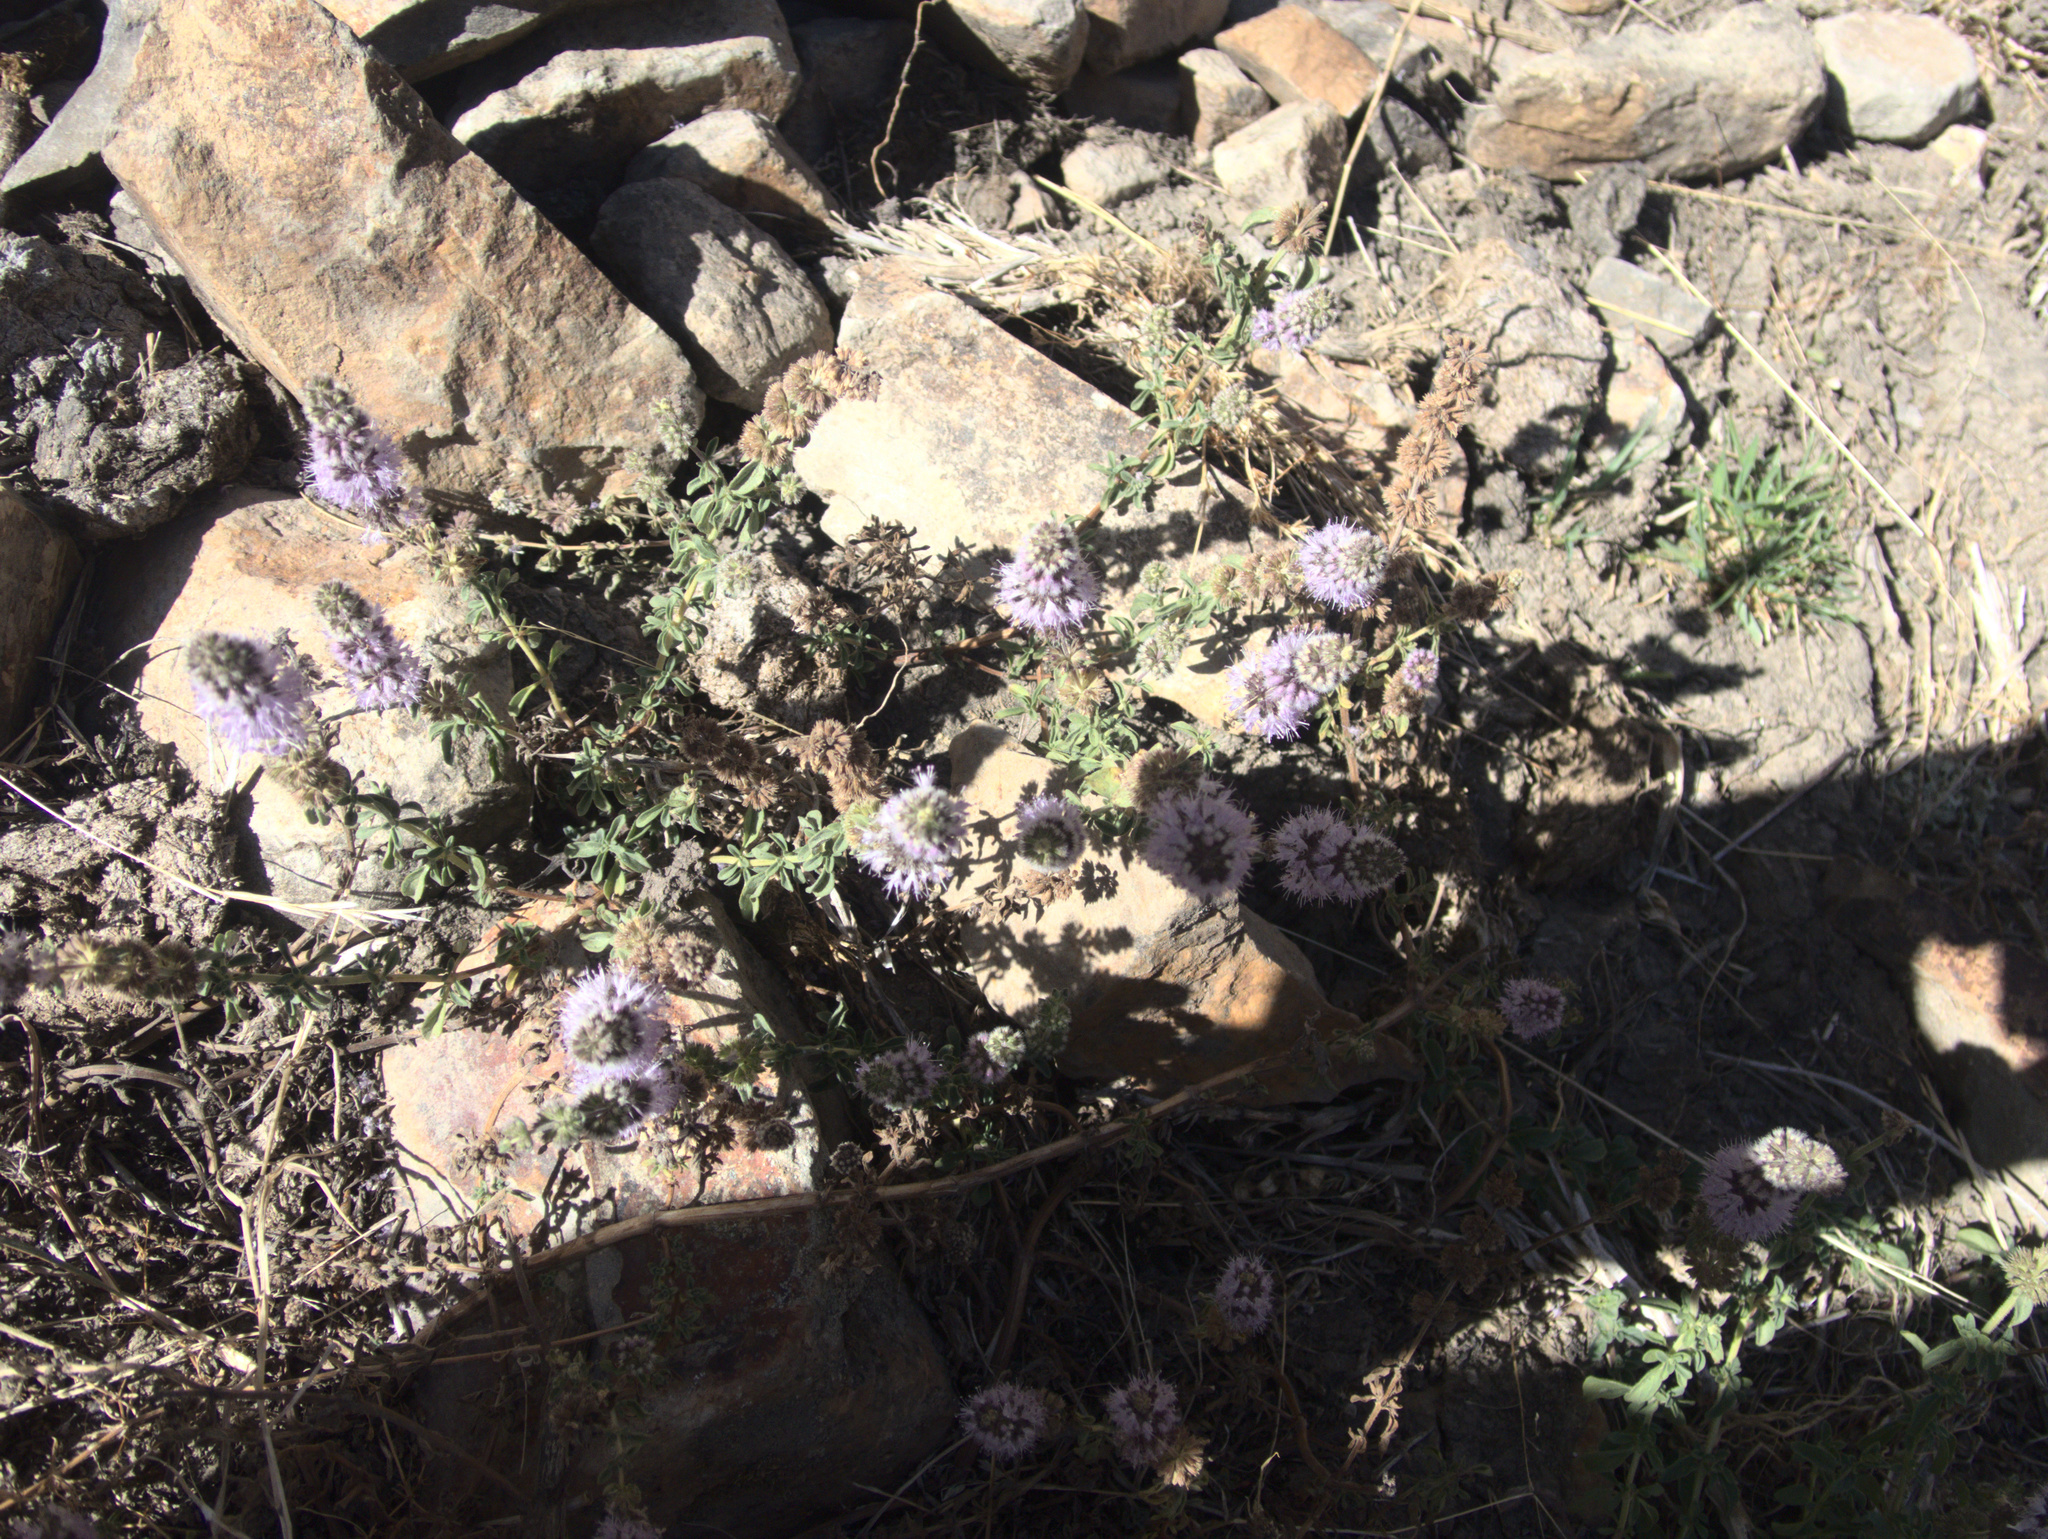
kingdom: Plantae
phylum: Tracheophyta
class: Magnoliopsida
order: Lamiales
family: Lamiaceae
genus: Mentha
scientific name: Mentha pulegium
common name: Pennyroyal
